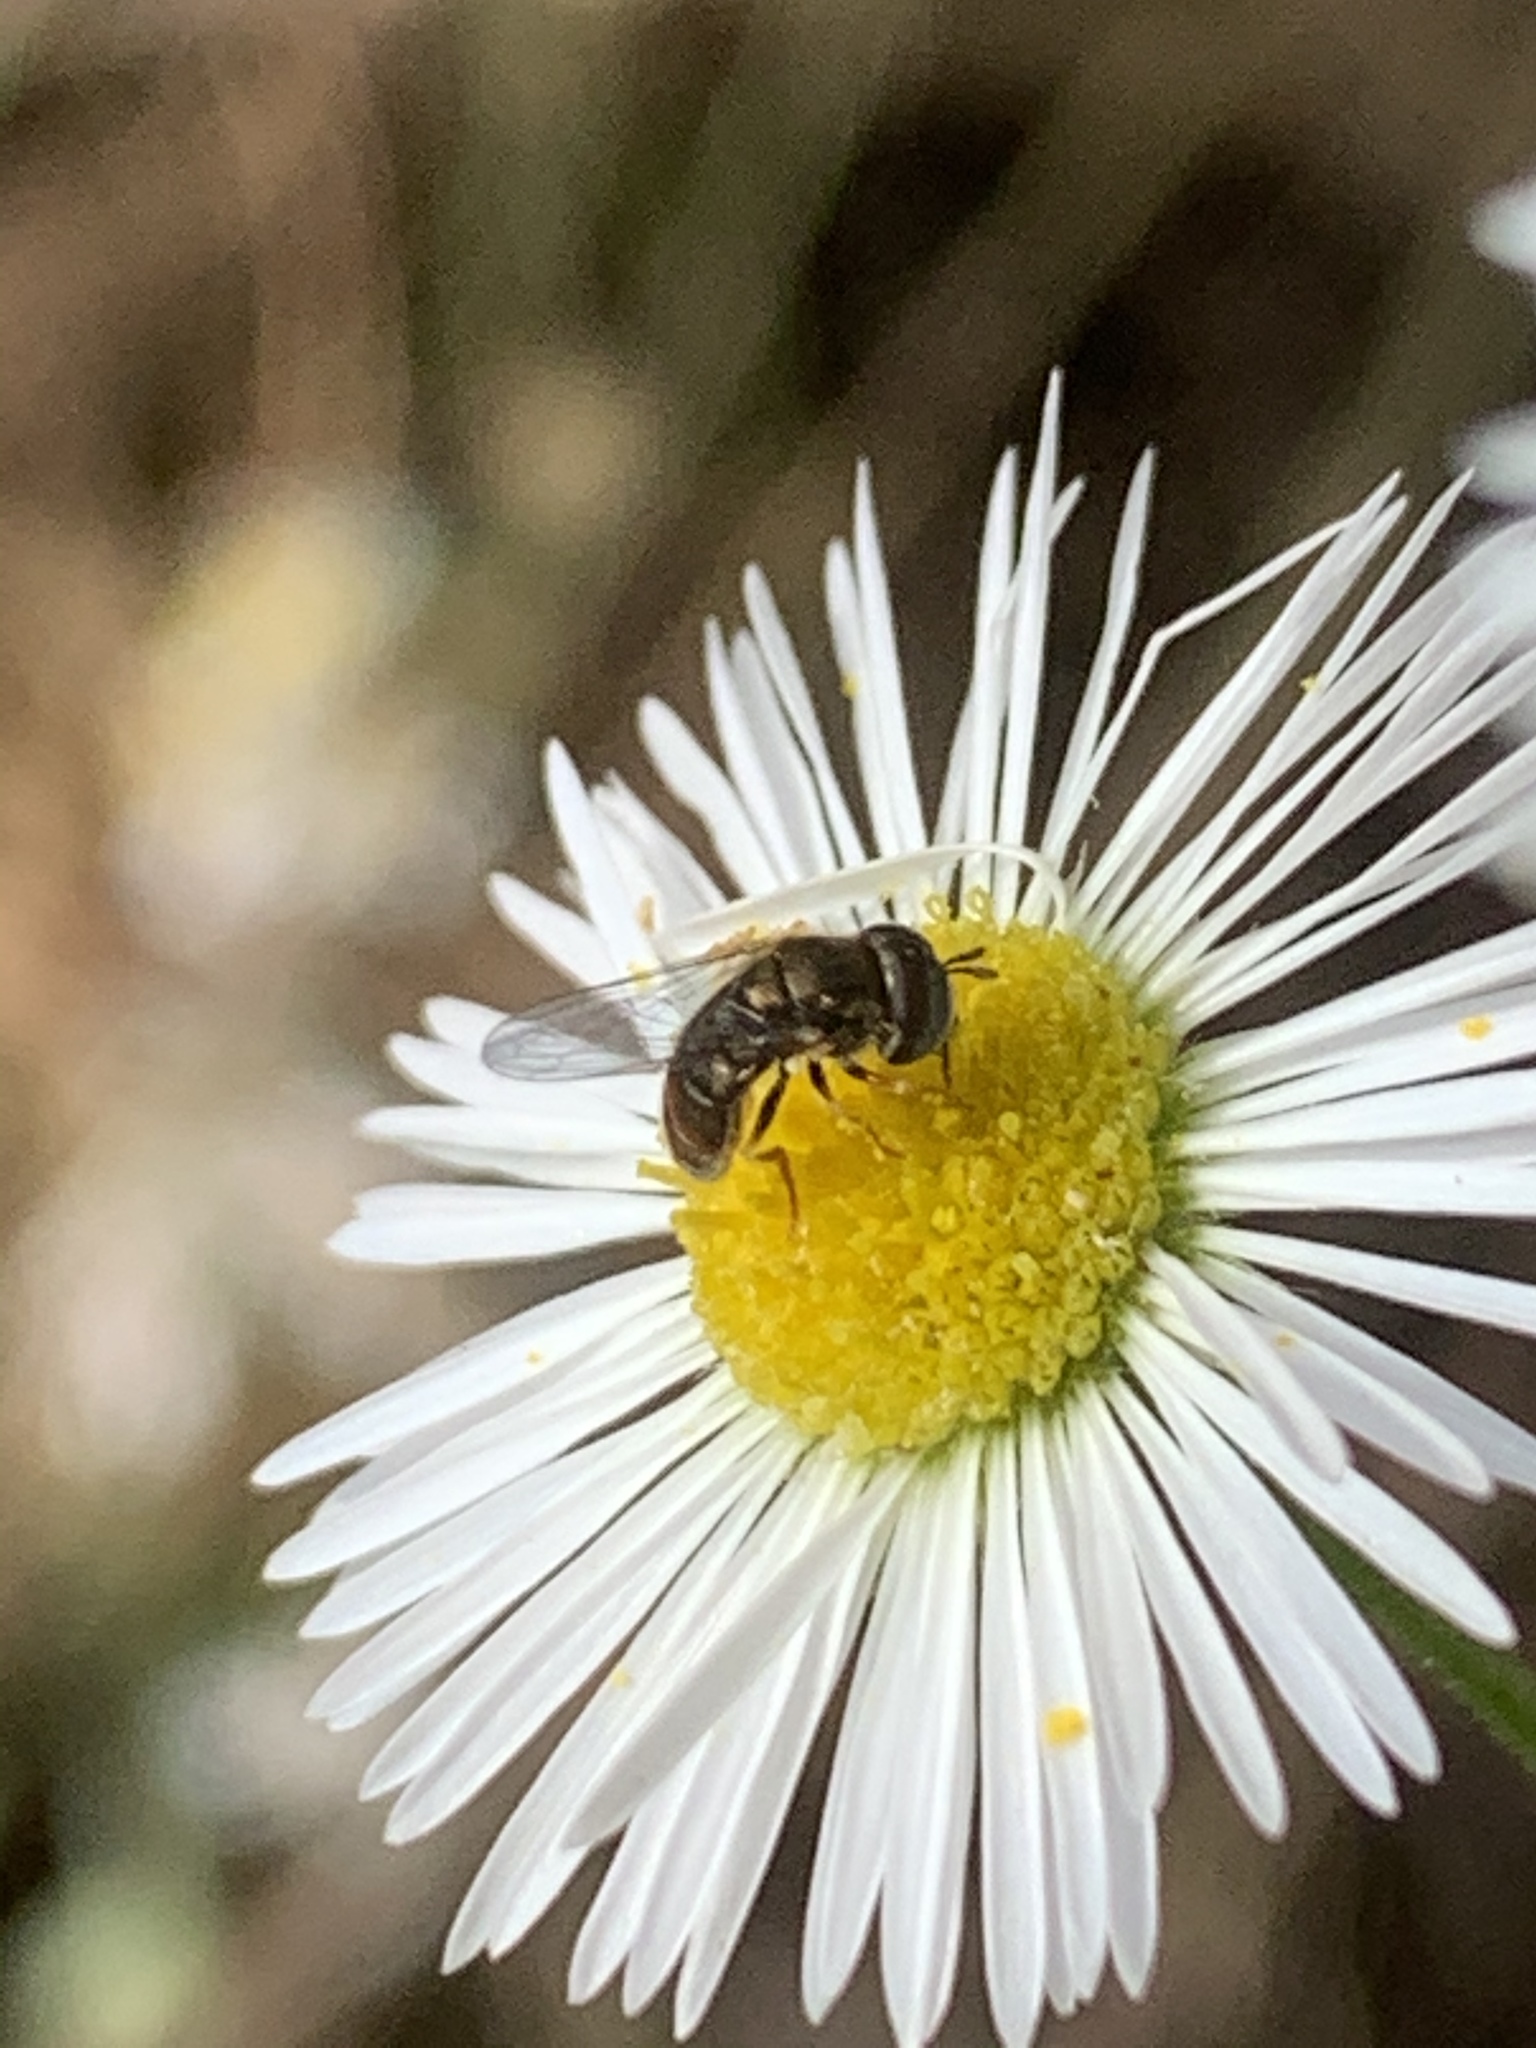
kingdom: Animalia
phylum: Arthropoda
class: Insecta
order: Diptera
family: Syrphidae
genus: Paragus
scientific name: Paragus haemorrhous
